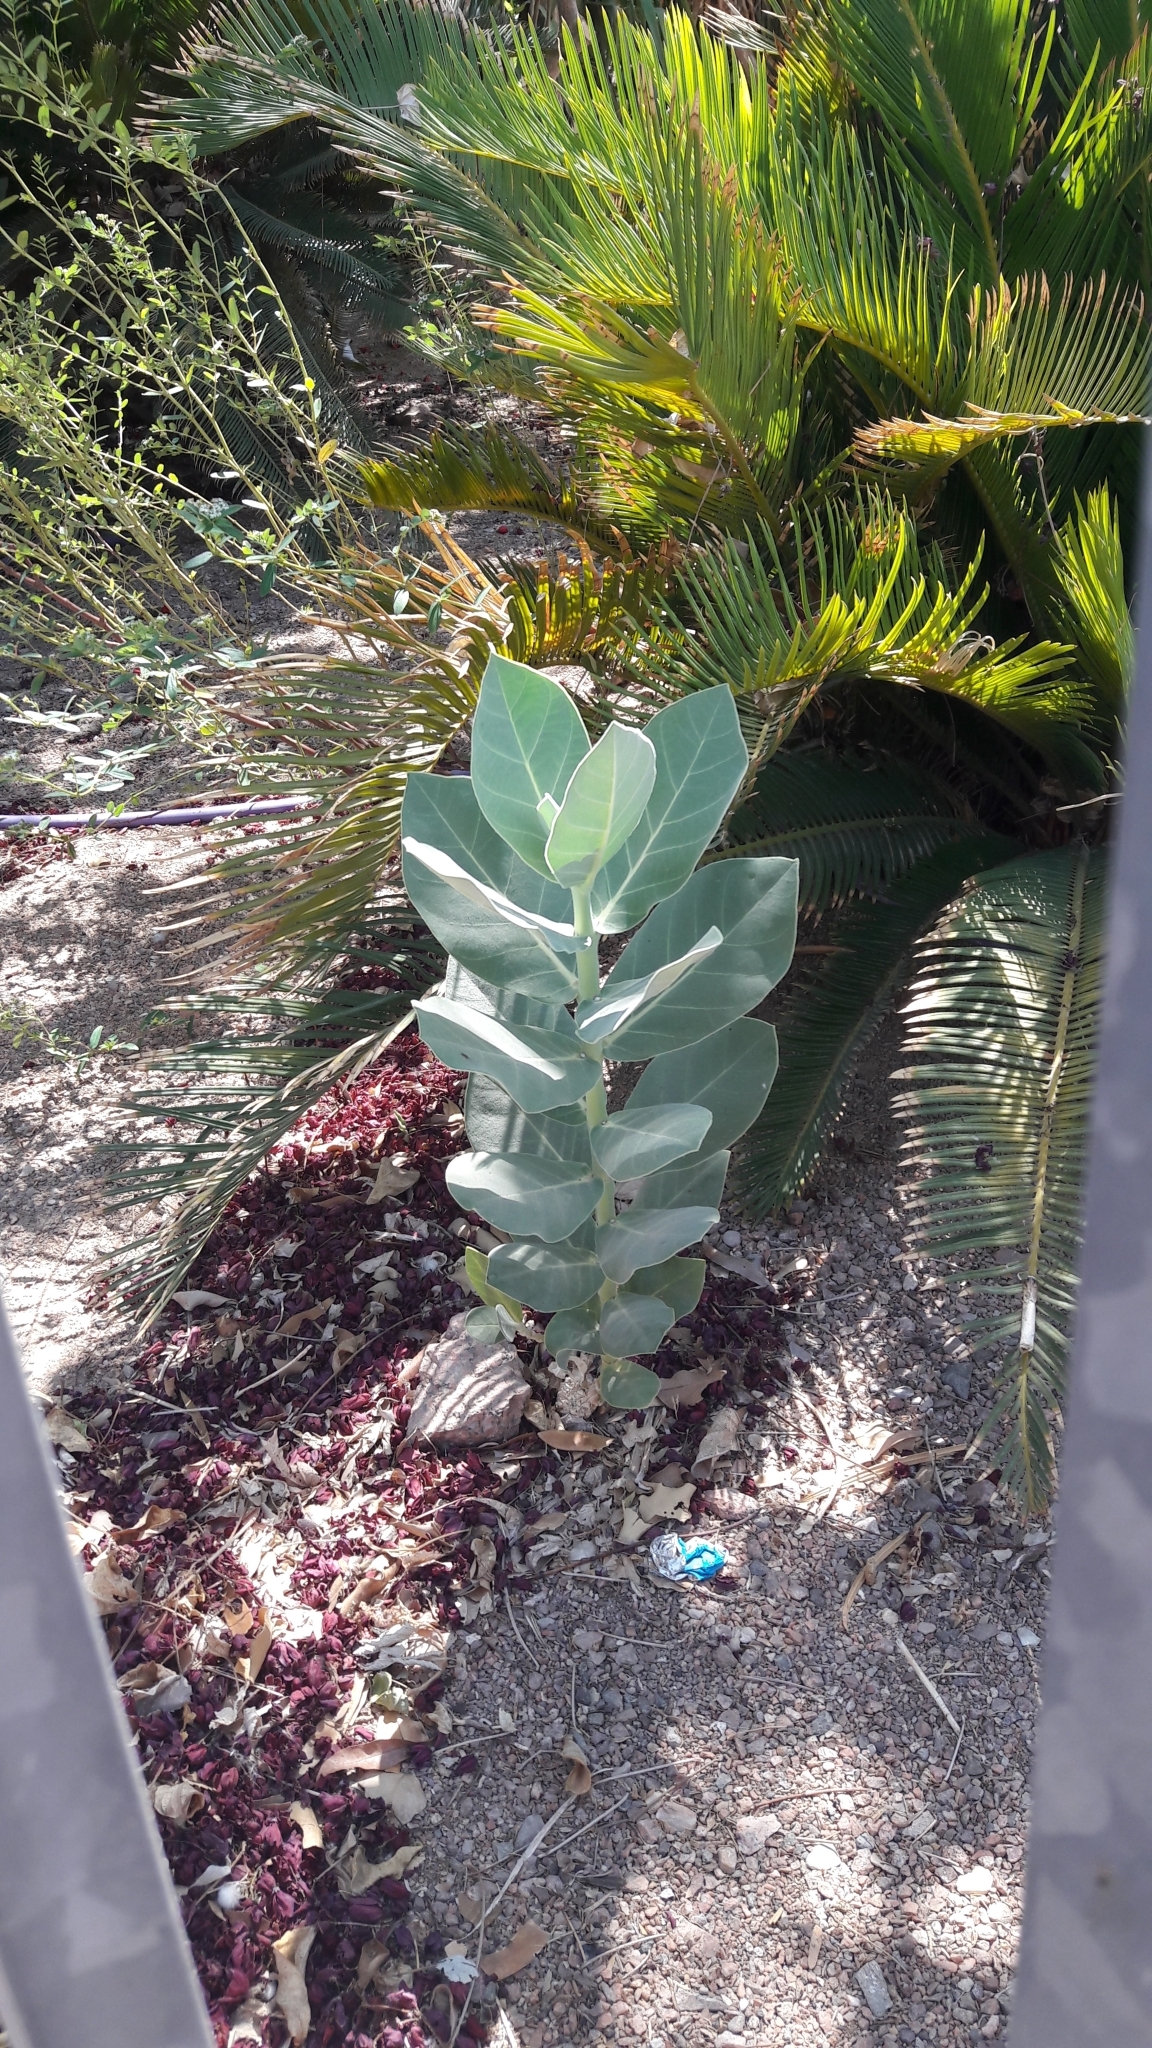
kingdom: Plantae
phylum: Tracheophyta
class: Magnoliopsida
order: Gentianales
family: Apocynaceae
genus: Calotropis
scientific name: Calotropis procera
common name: Roostertree
